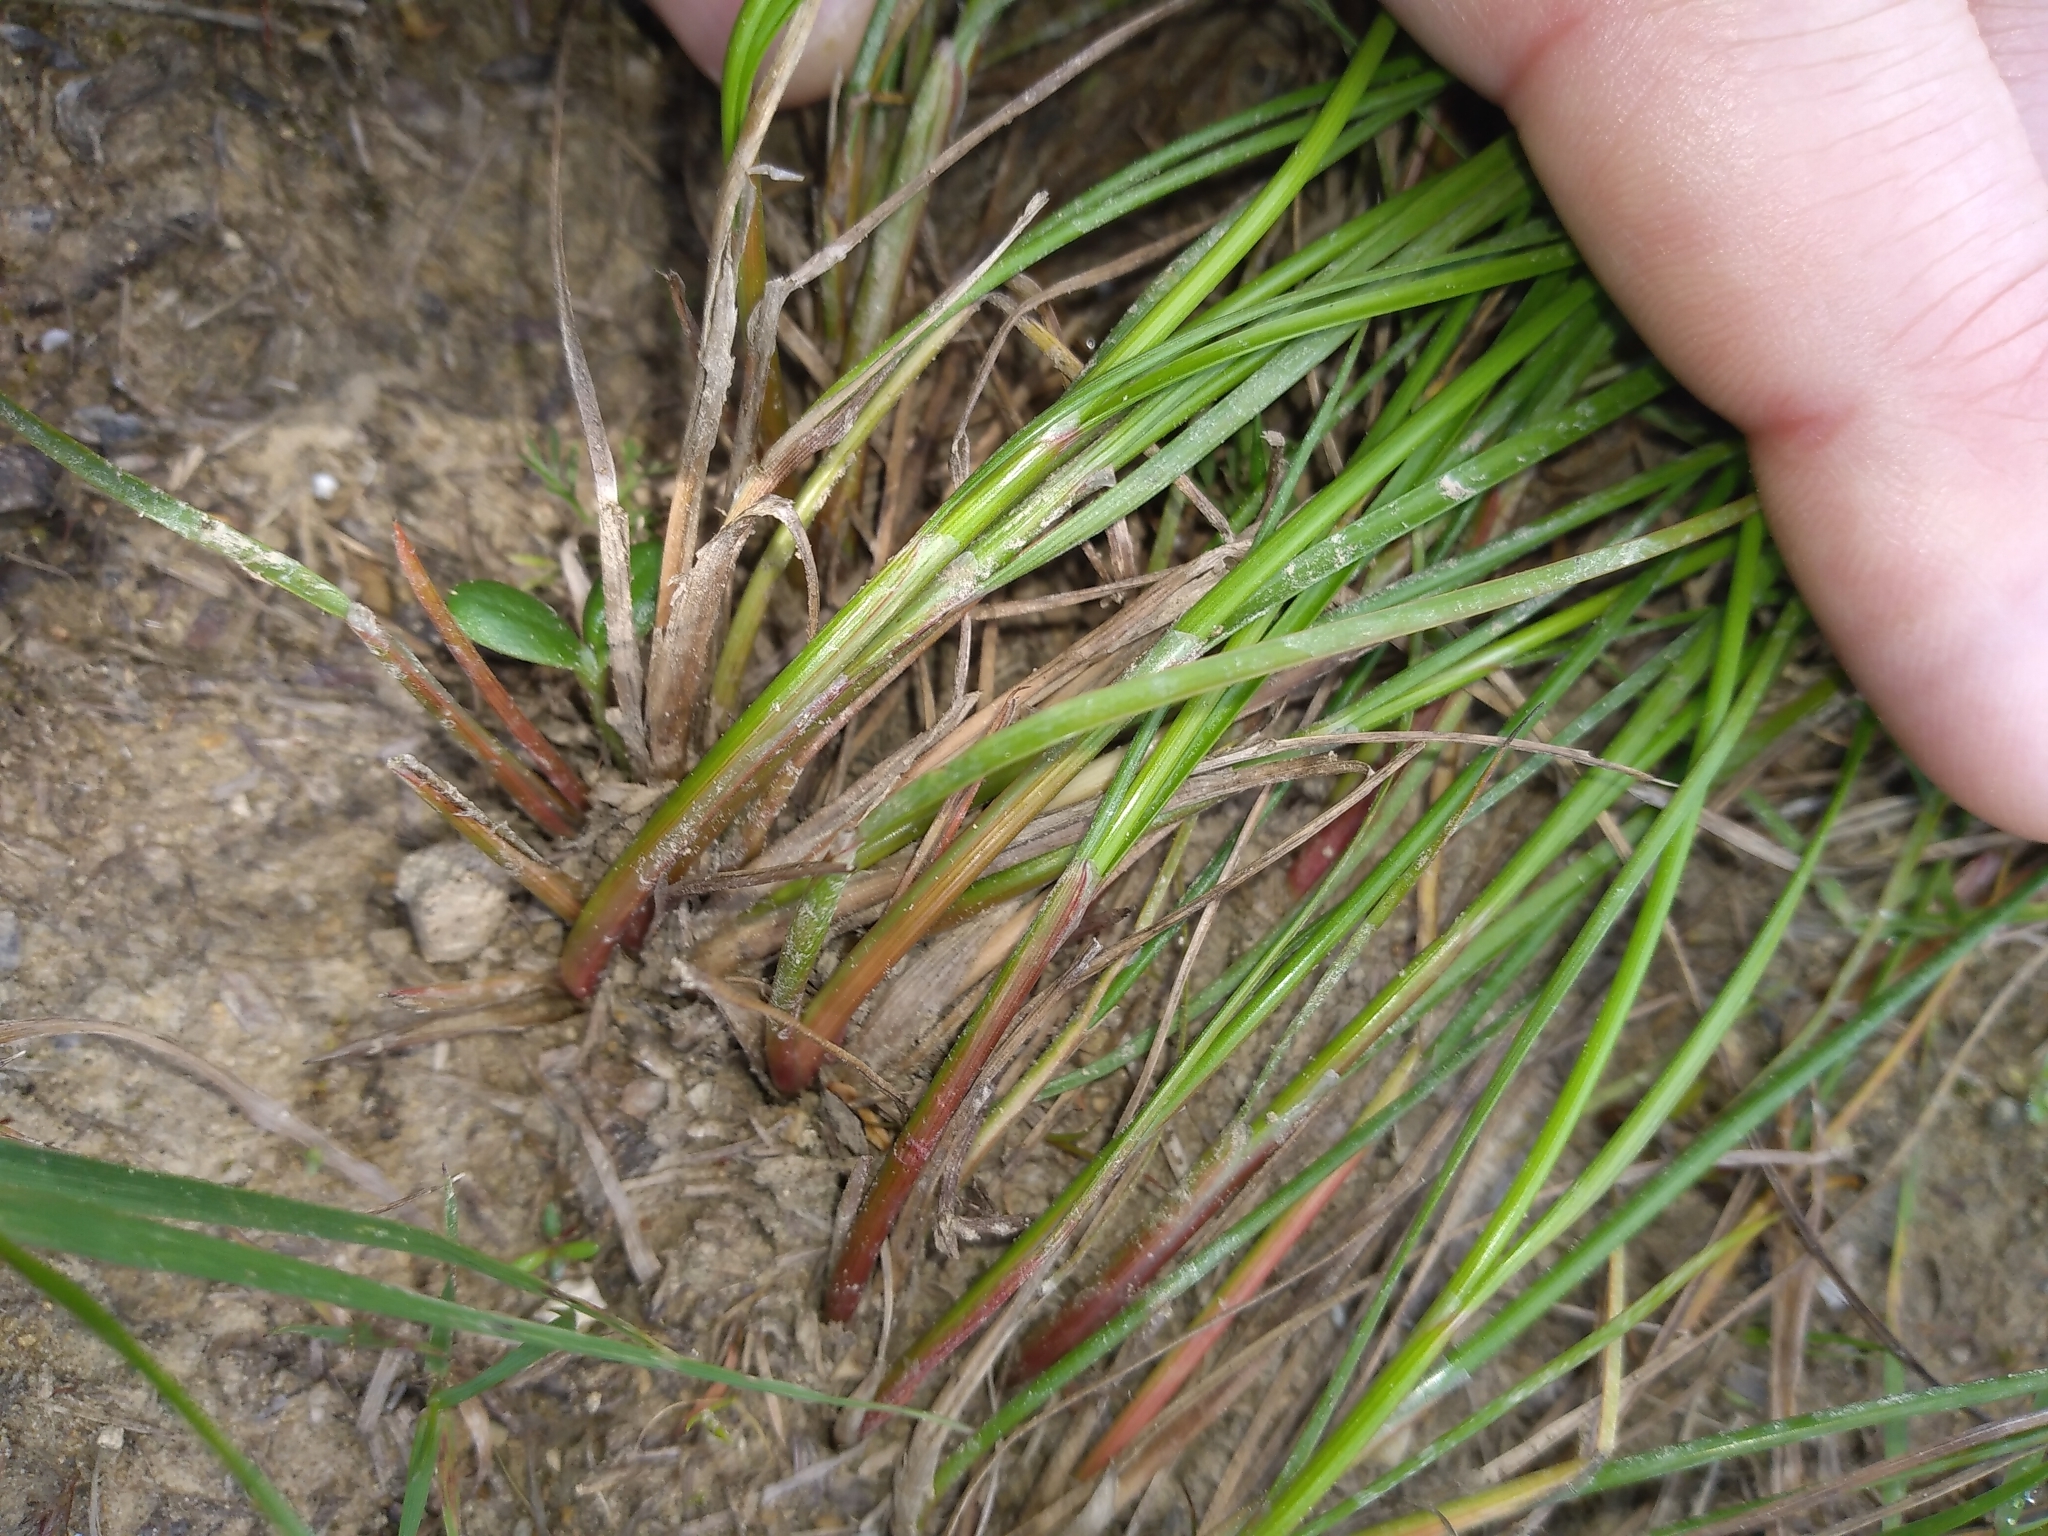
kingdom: Plantae
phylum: Tracheophyta
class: Liliopsida
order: Poales
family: Juncaceae
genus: Juncus
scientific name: Juncus tenuis
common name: Slender rush
